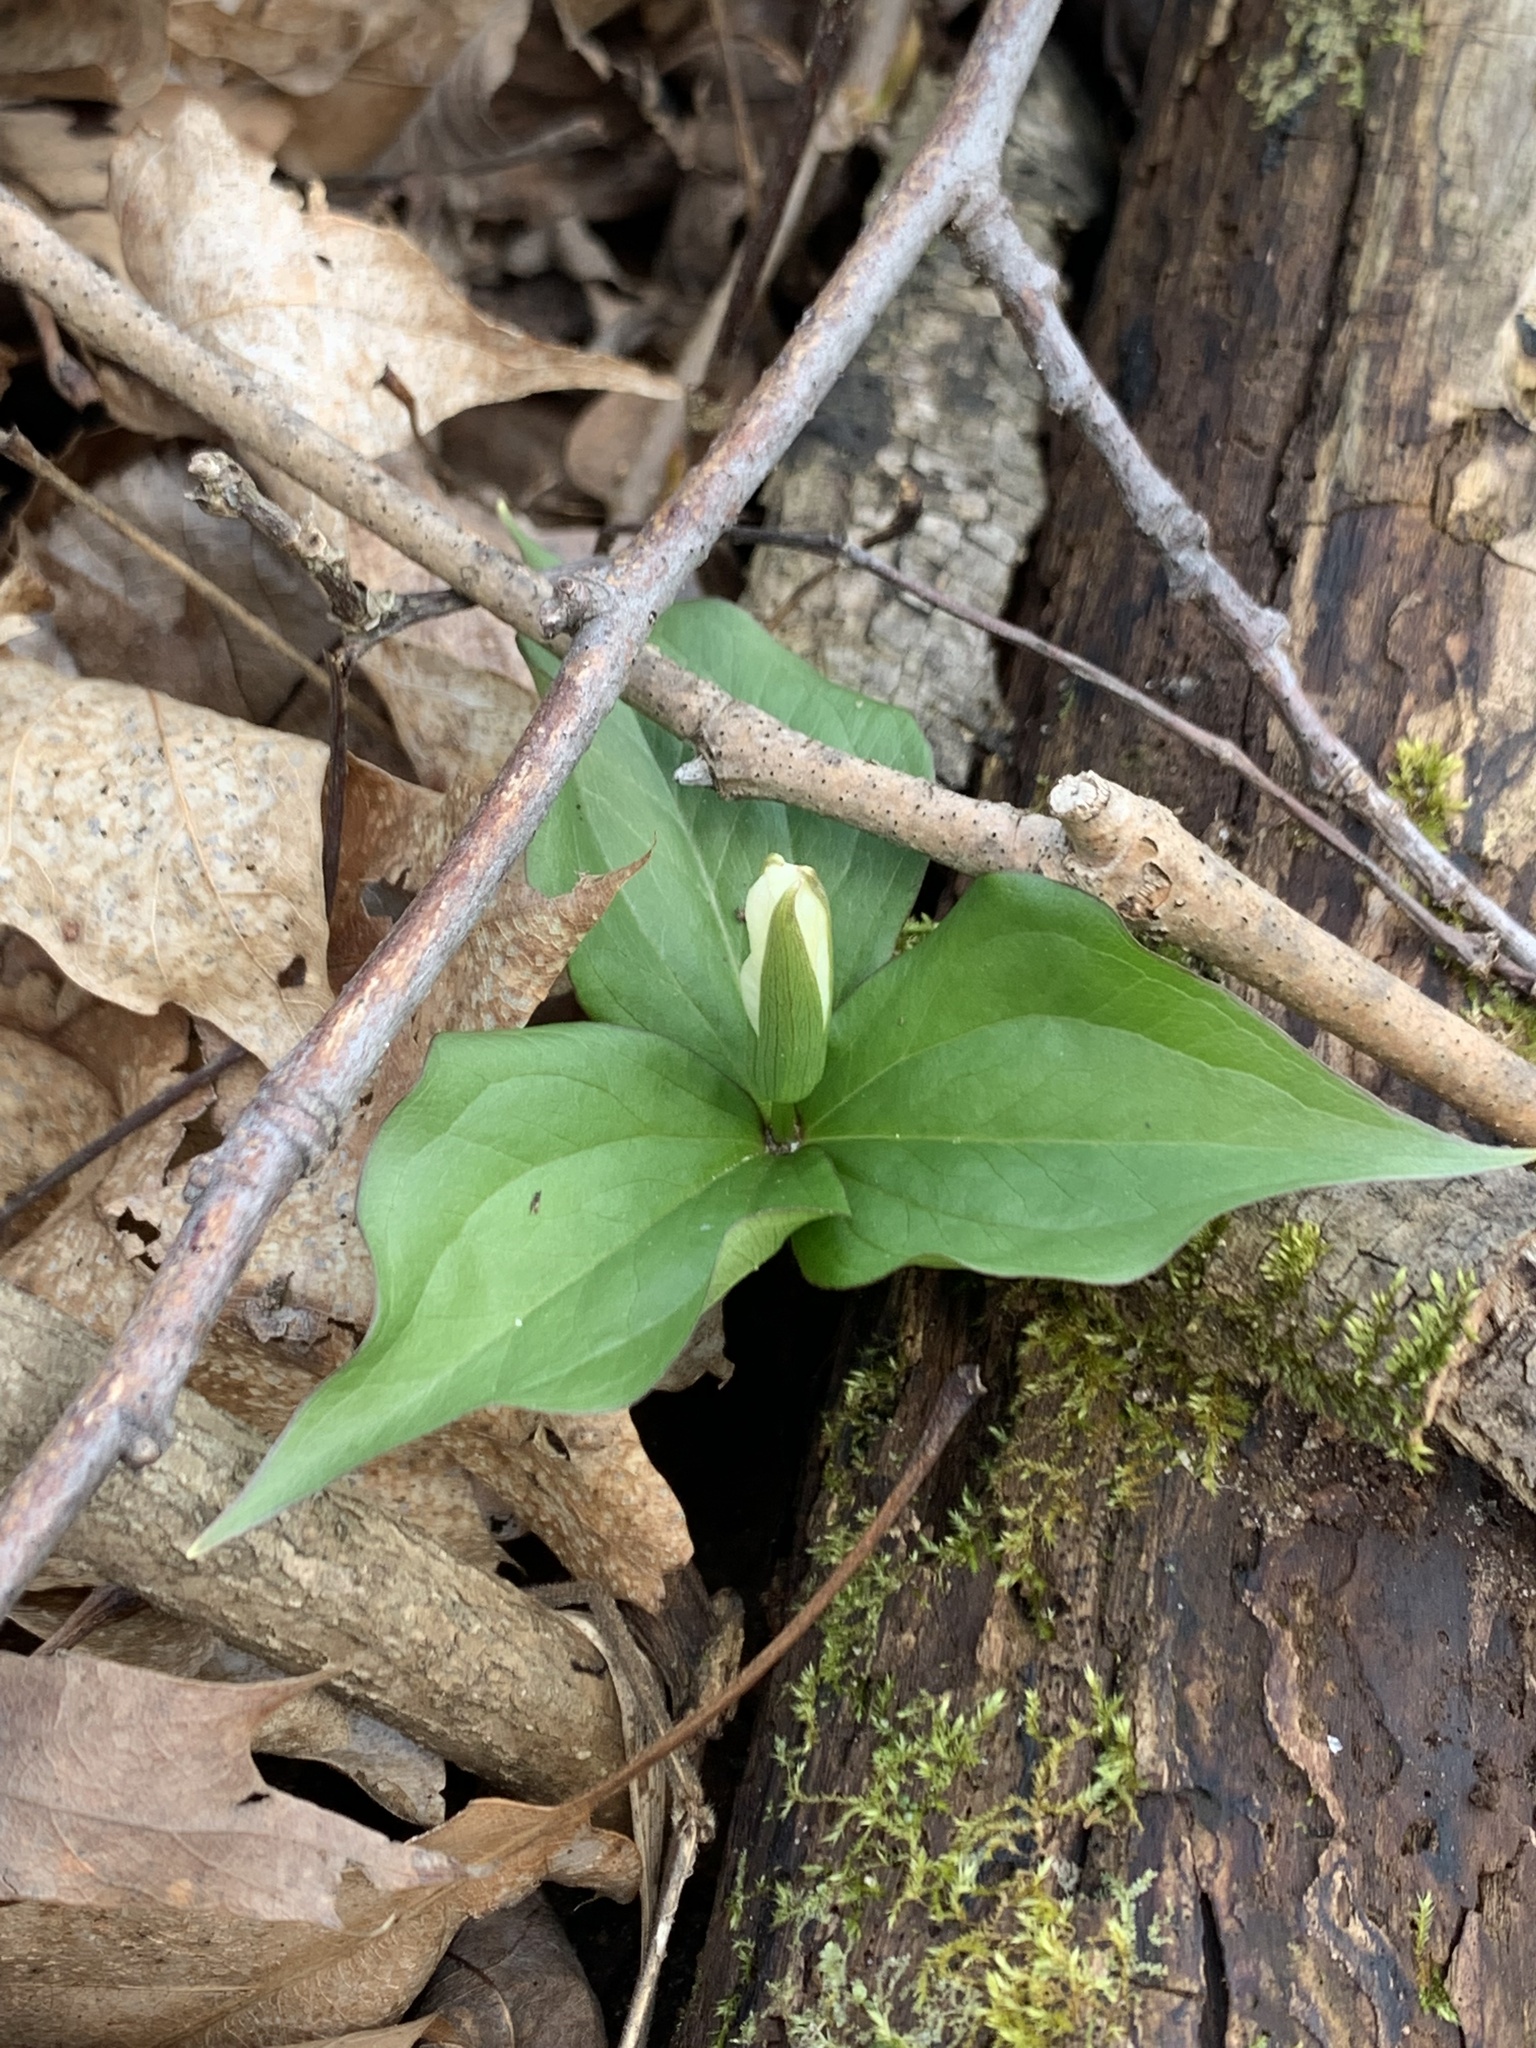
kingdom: Plantae
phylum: Tracheophyta
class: Liliopsida
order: Liliales
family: Melanthiaceae
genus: Trillium
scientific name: Trillium grandiflorum
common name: Great white trillium
